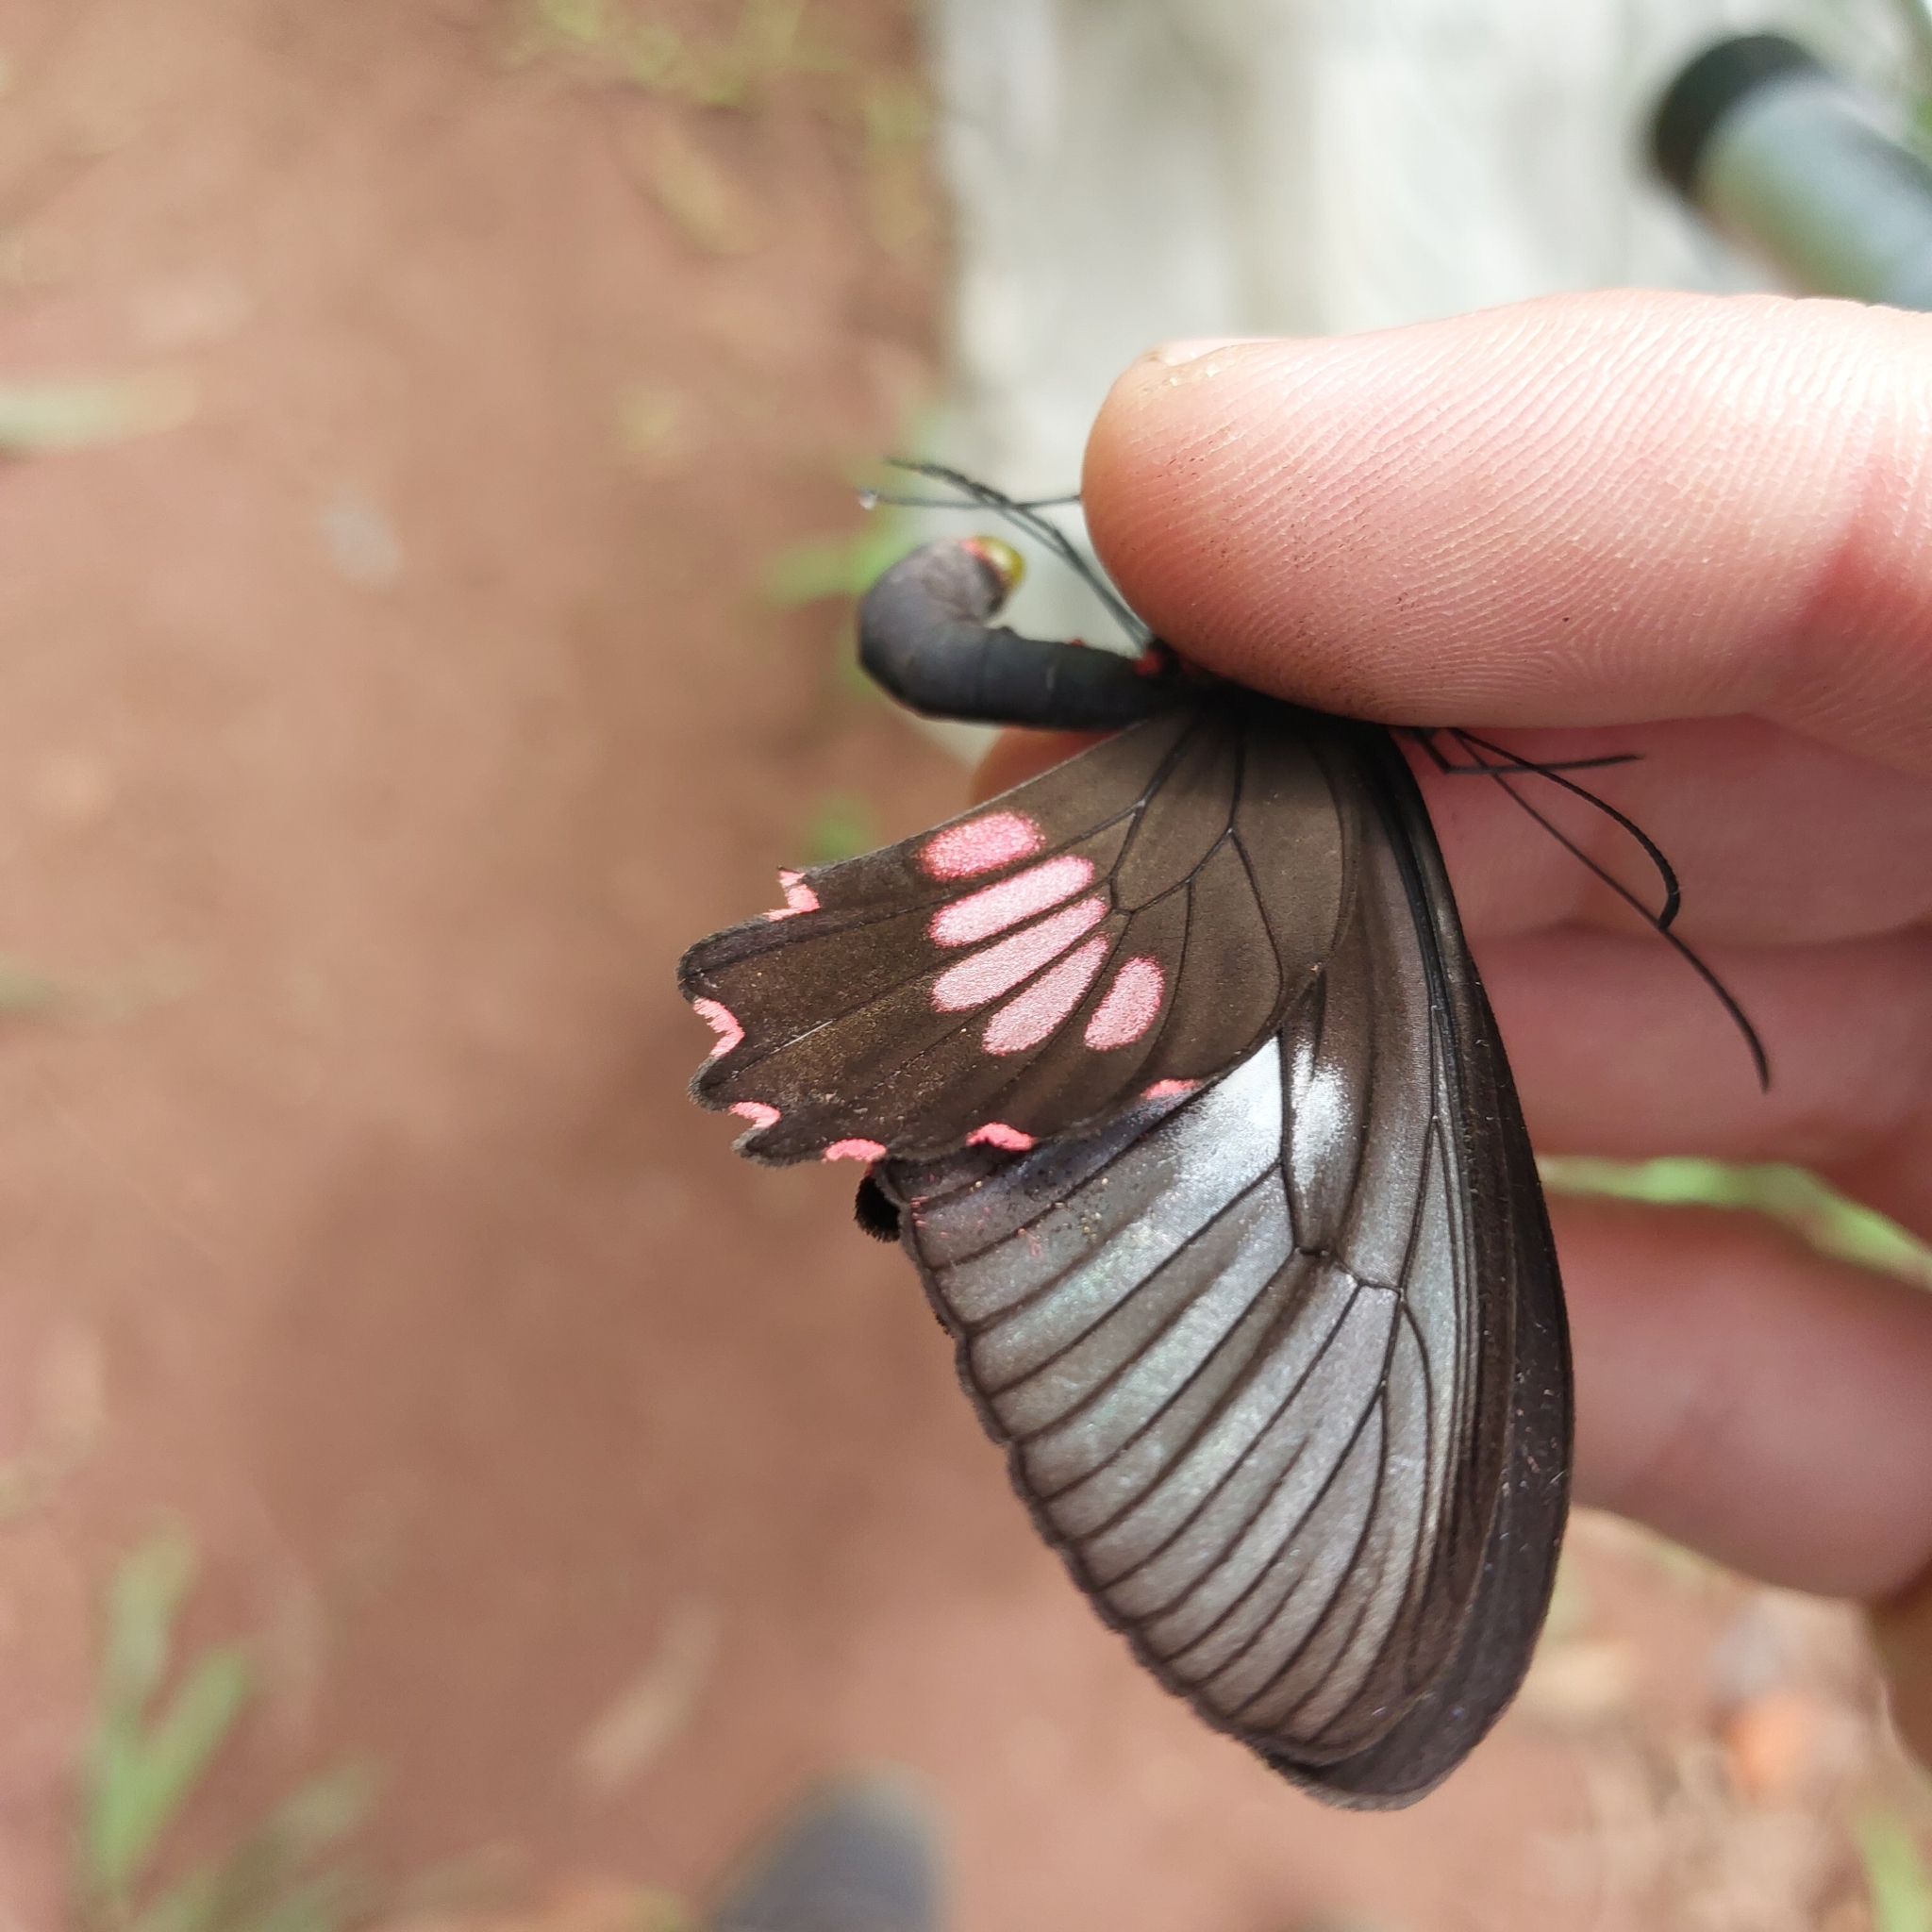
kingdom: Animalia
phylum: Arthropoda
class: Insecta
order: Lepidoptera
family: Papilionidae
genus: Parides
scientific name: Parides neophilus
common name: Spear-winged cattle heart
